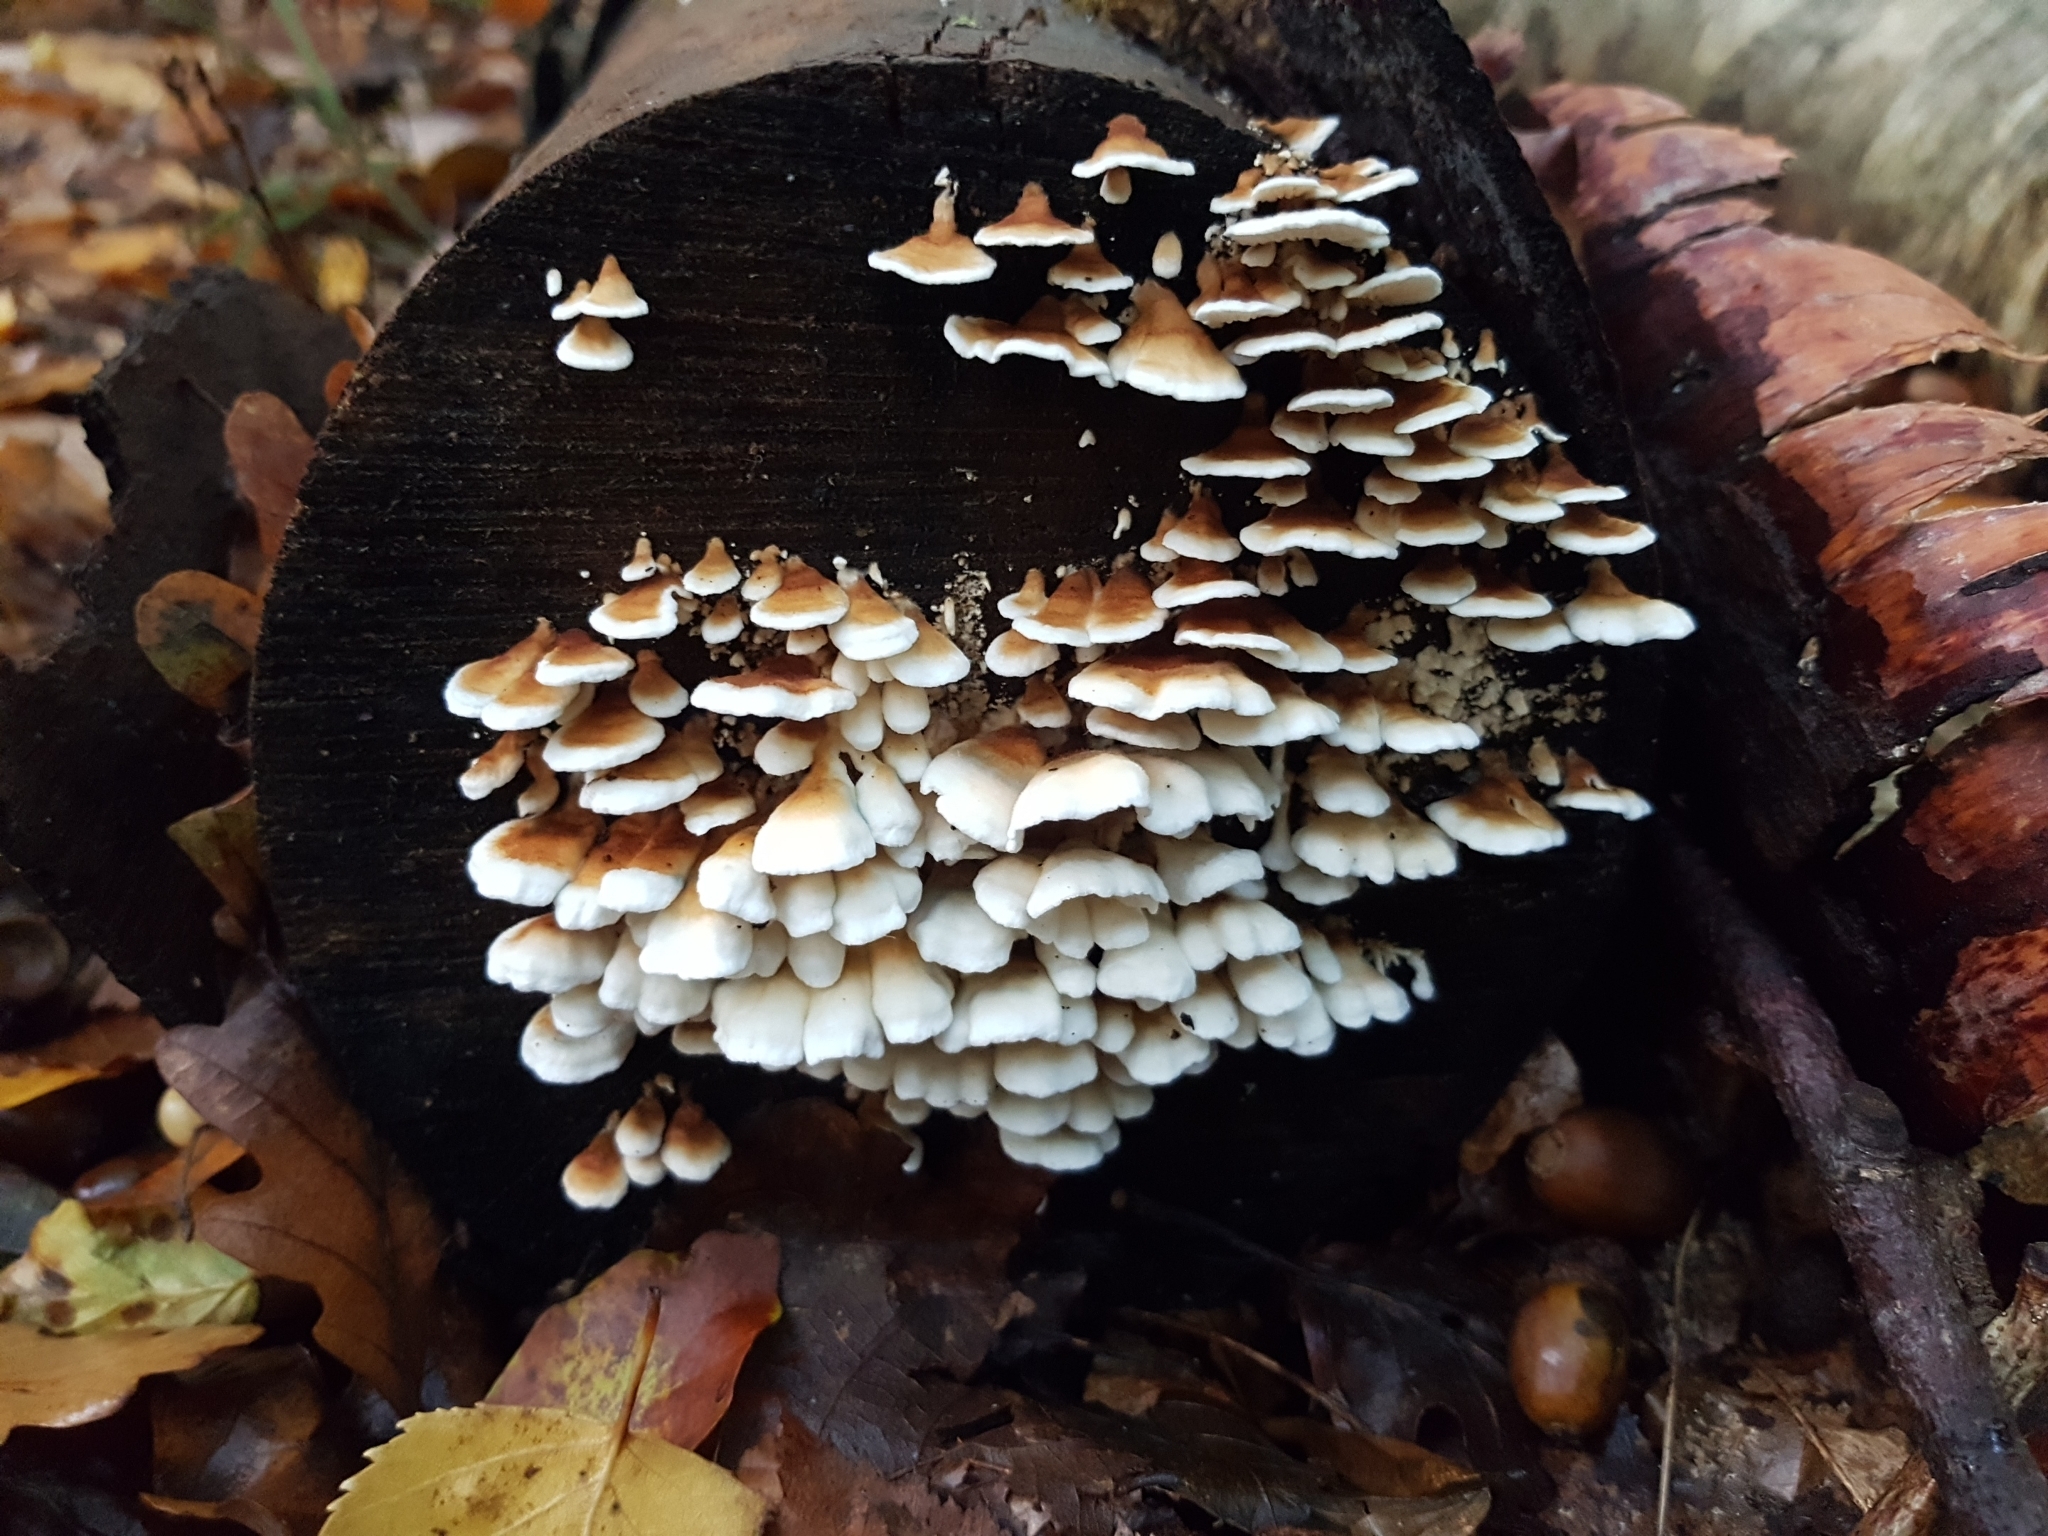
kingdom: Fungi
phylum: Basidiomycota
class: Agaricomycetes
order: Amylocorticiales
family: Amylocorticiaceae
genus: Plicaturopsis
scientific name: Plicaturopsis crispa
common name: Crimped gill
